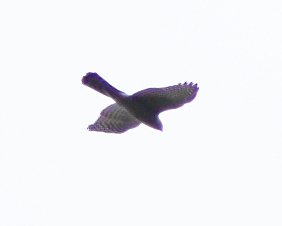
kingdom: Animalia
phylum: Chordata
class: Aves
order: Accipitriformes
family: Accipitridae
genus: Accipiter
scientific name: Accipiter nisus
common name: Eurasian sparrowhawk
